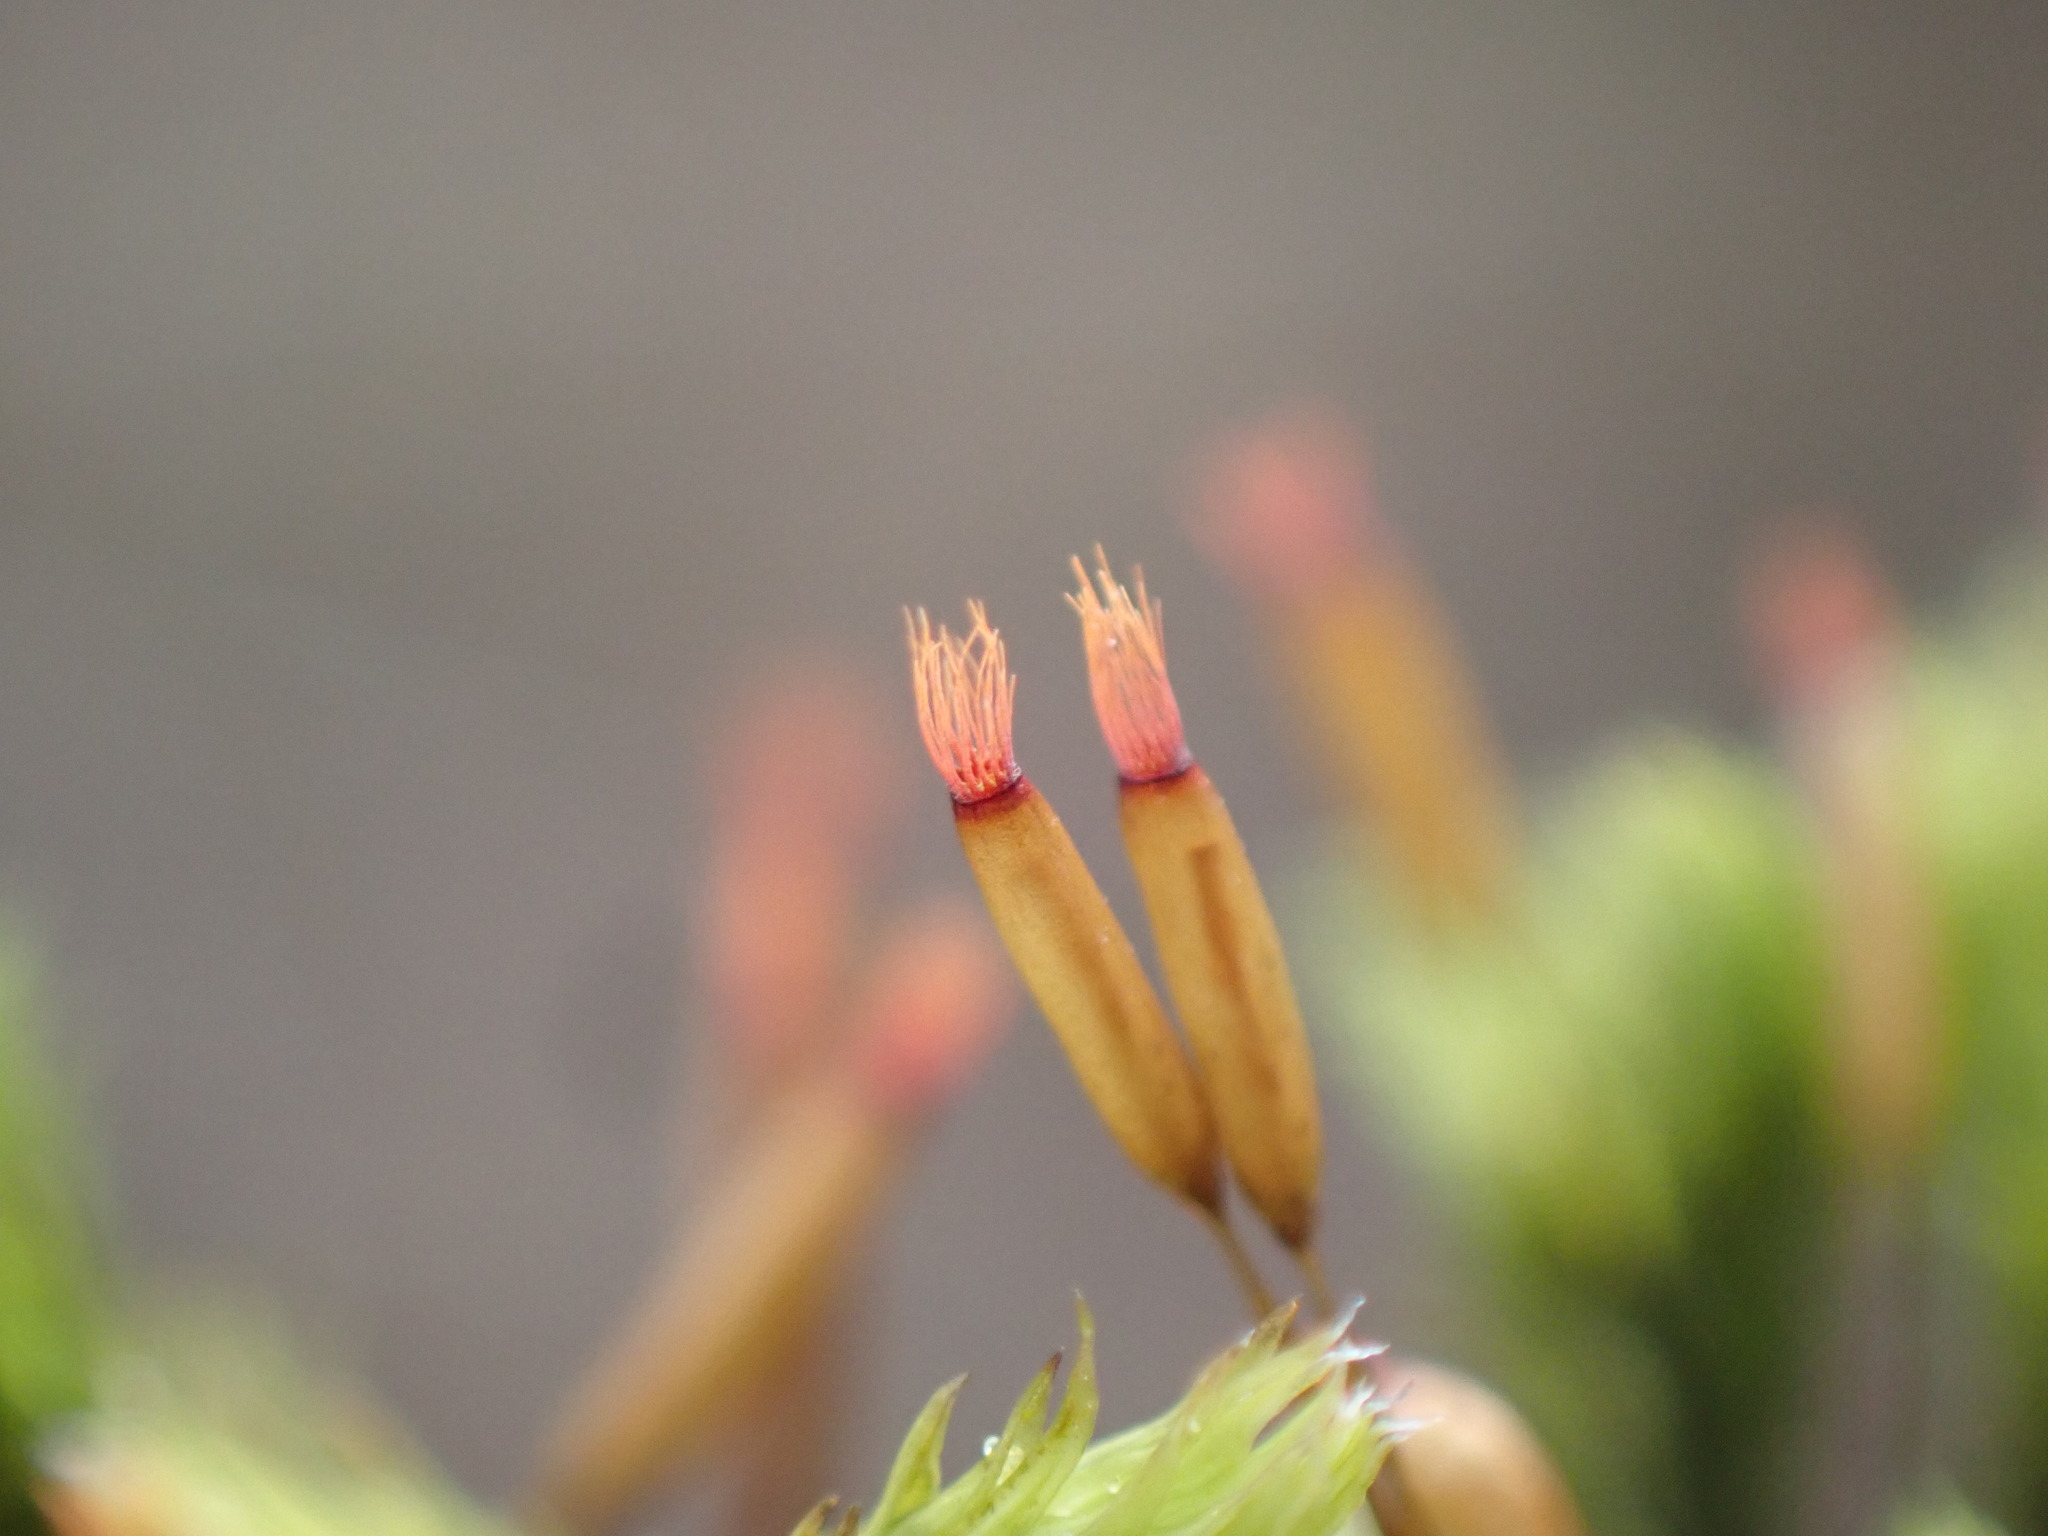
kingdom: Plantae
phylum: Bryophyta
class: Bryopsida
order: Grimmiales
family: Grimmiaceae
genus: Frisvollia
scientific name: Frisvollia varia
